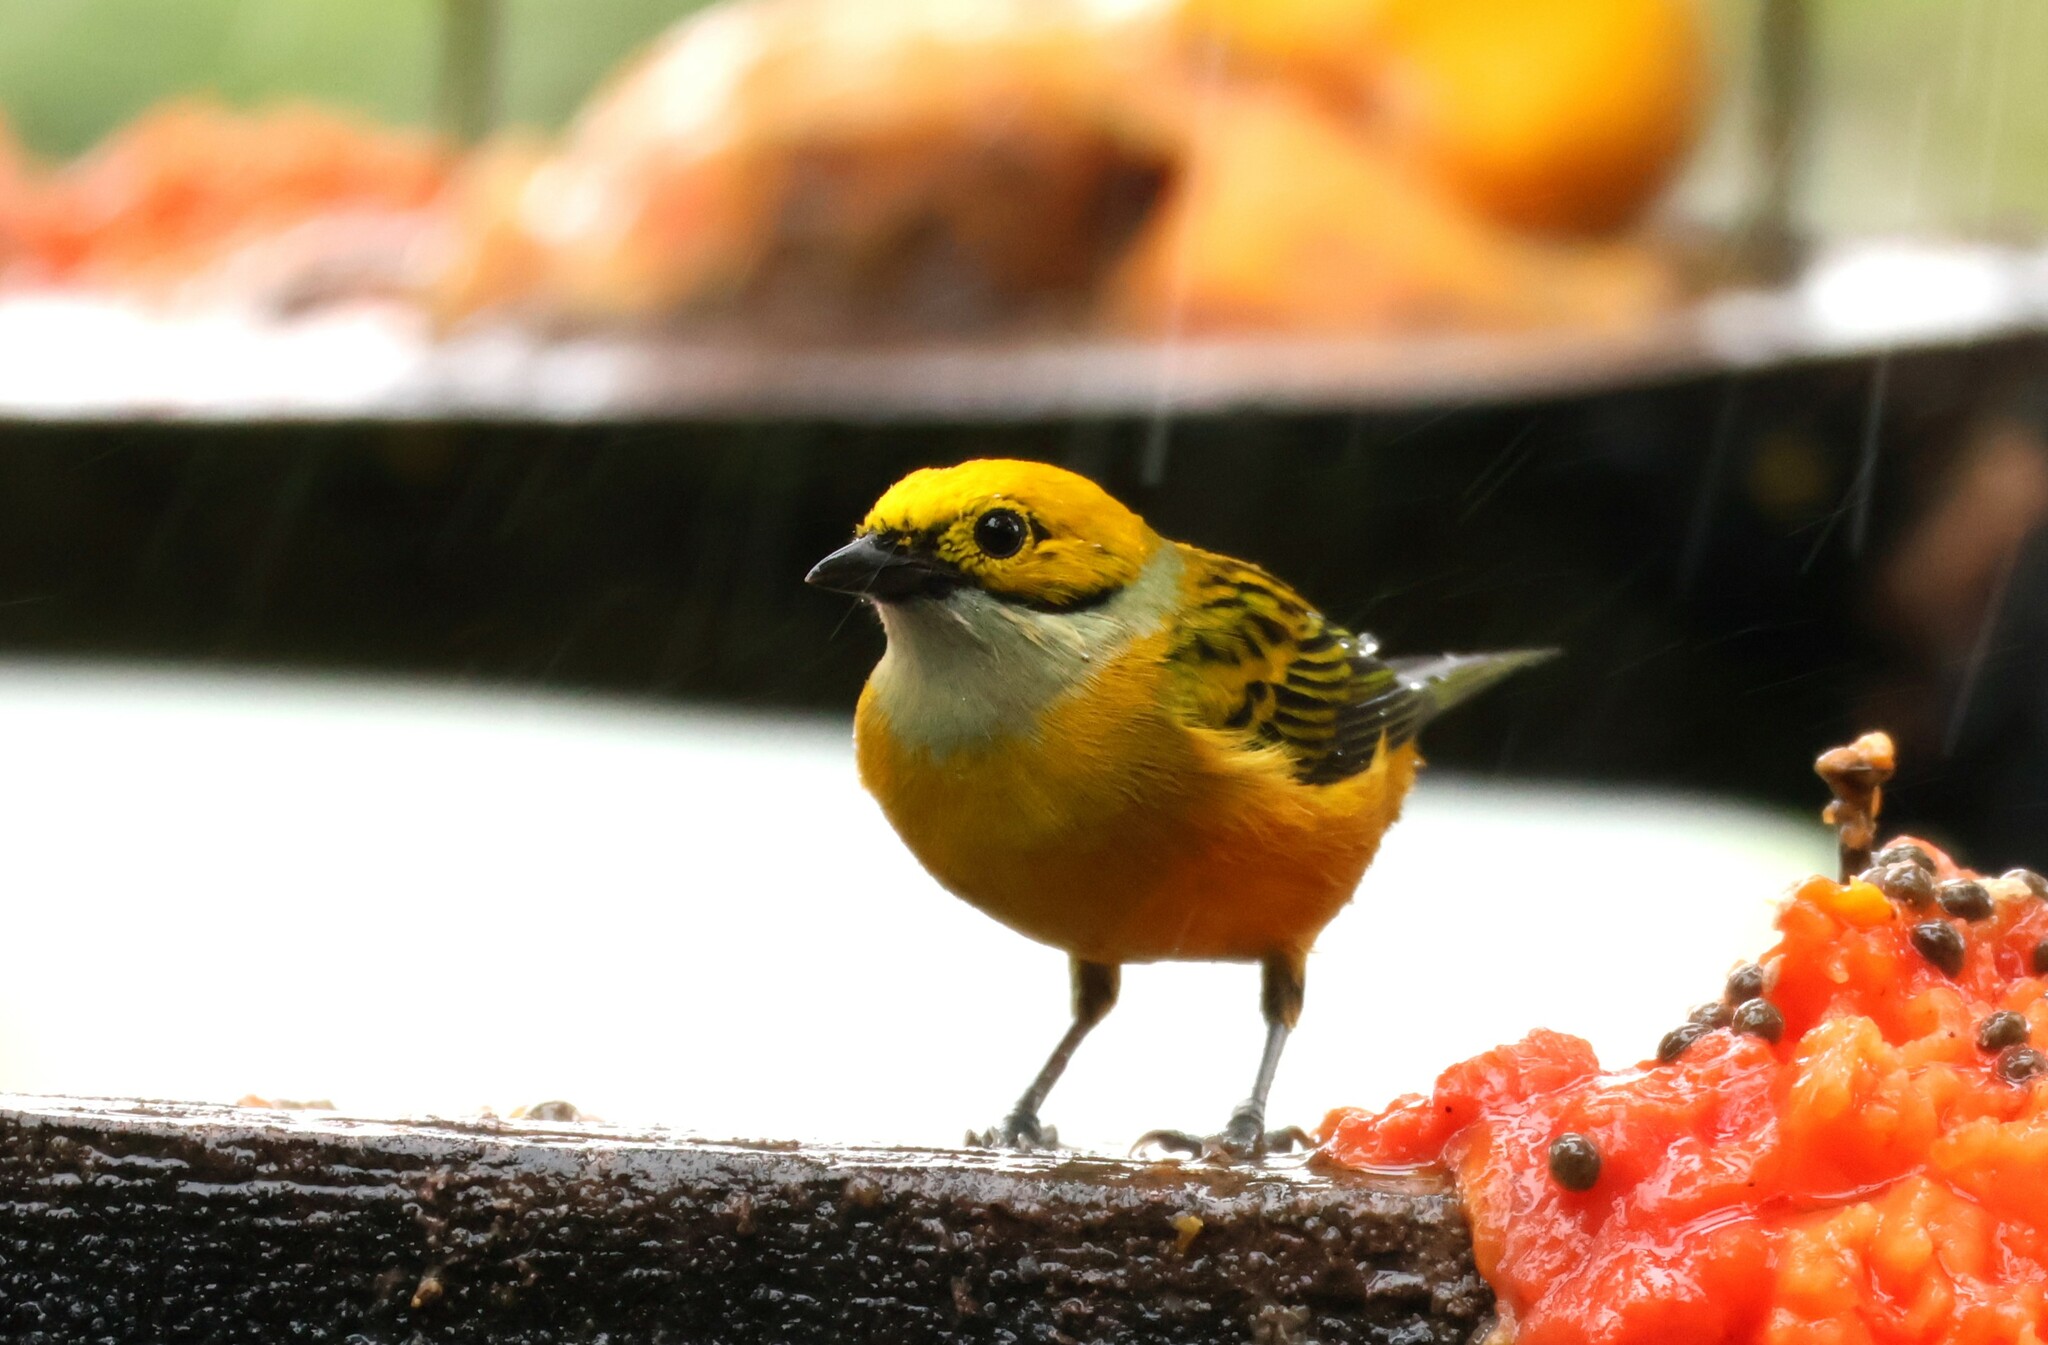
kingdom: Animalia
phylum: Chordata
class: Aves
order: Passeriformes
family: Thraupidae
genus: Tangara
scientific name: Tangara icterocephala
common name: Silver-throated tanager
